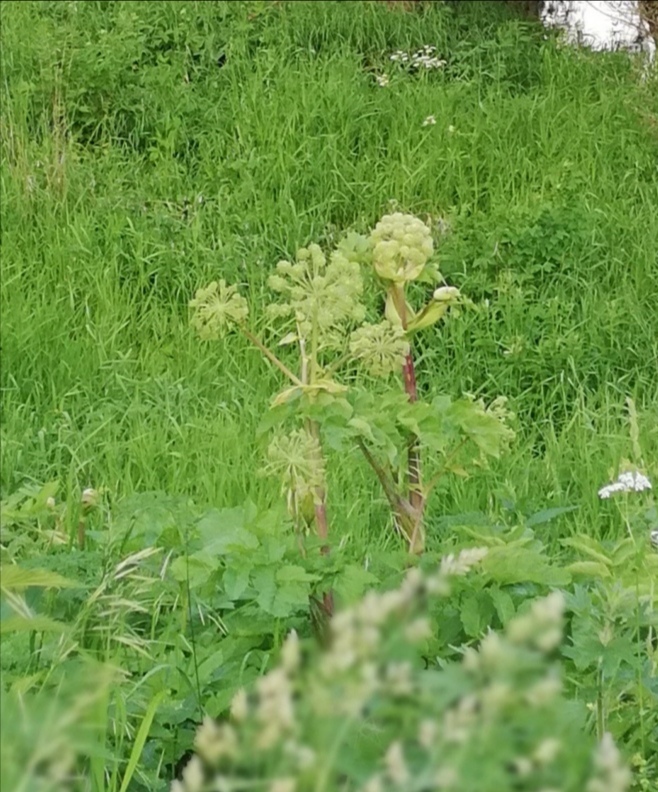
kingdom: Plantae
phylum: Tracheophyta
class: Magnoliopsida
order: Apiales
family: Apiaceae
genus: Angelica
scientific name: Angelica archangelica
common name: Garden angelica
